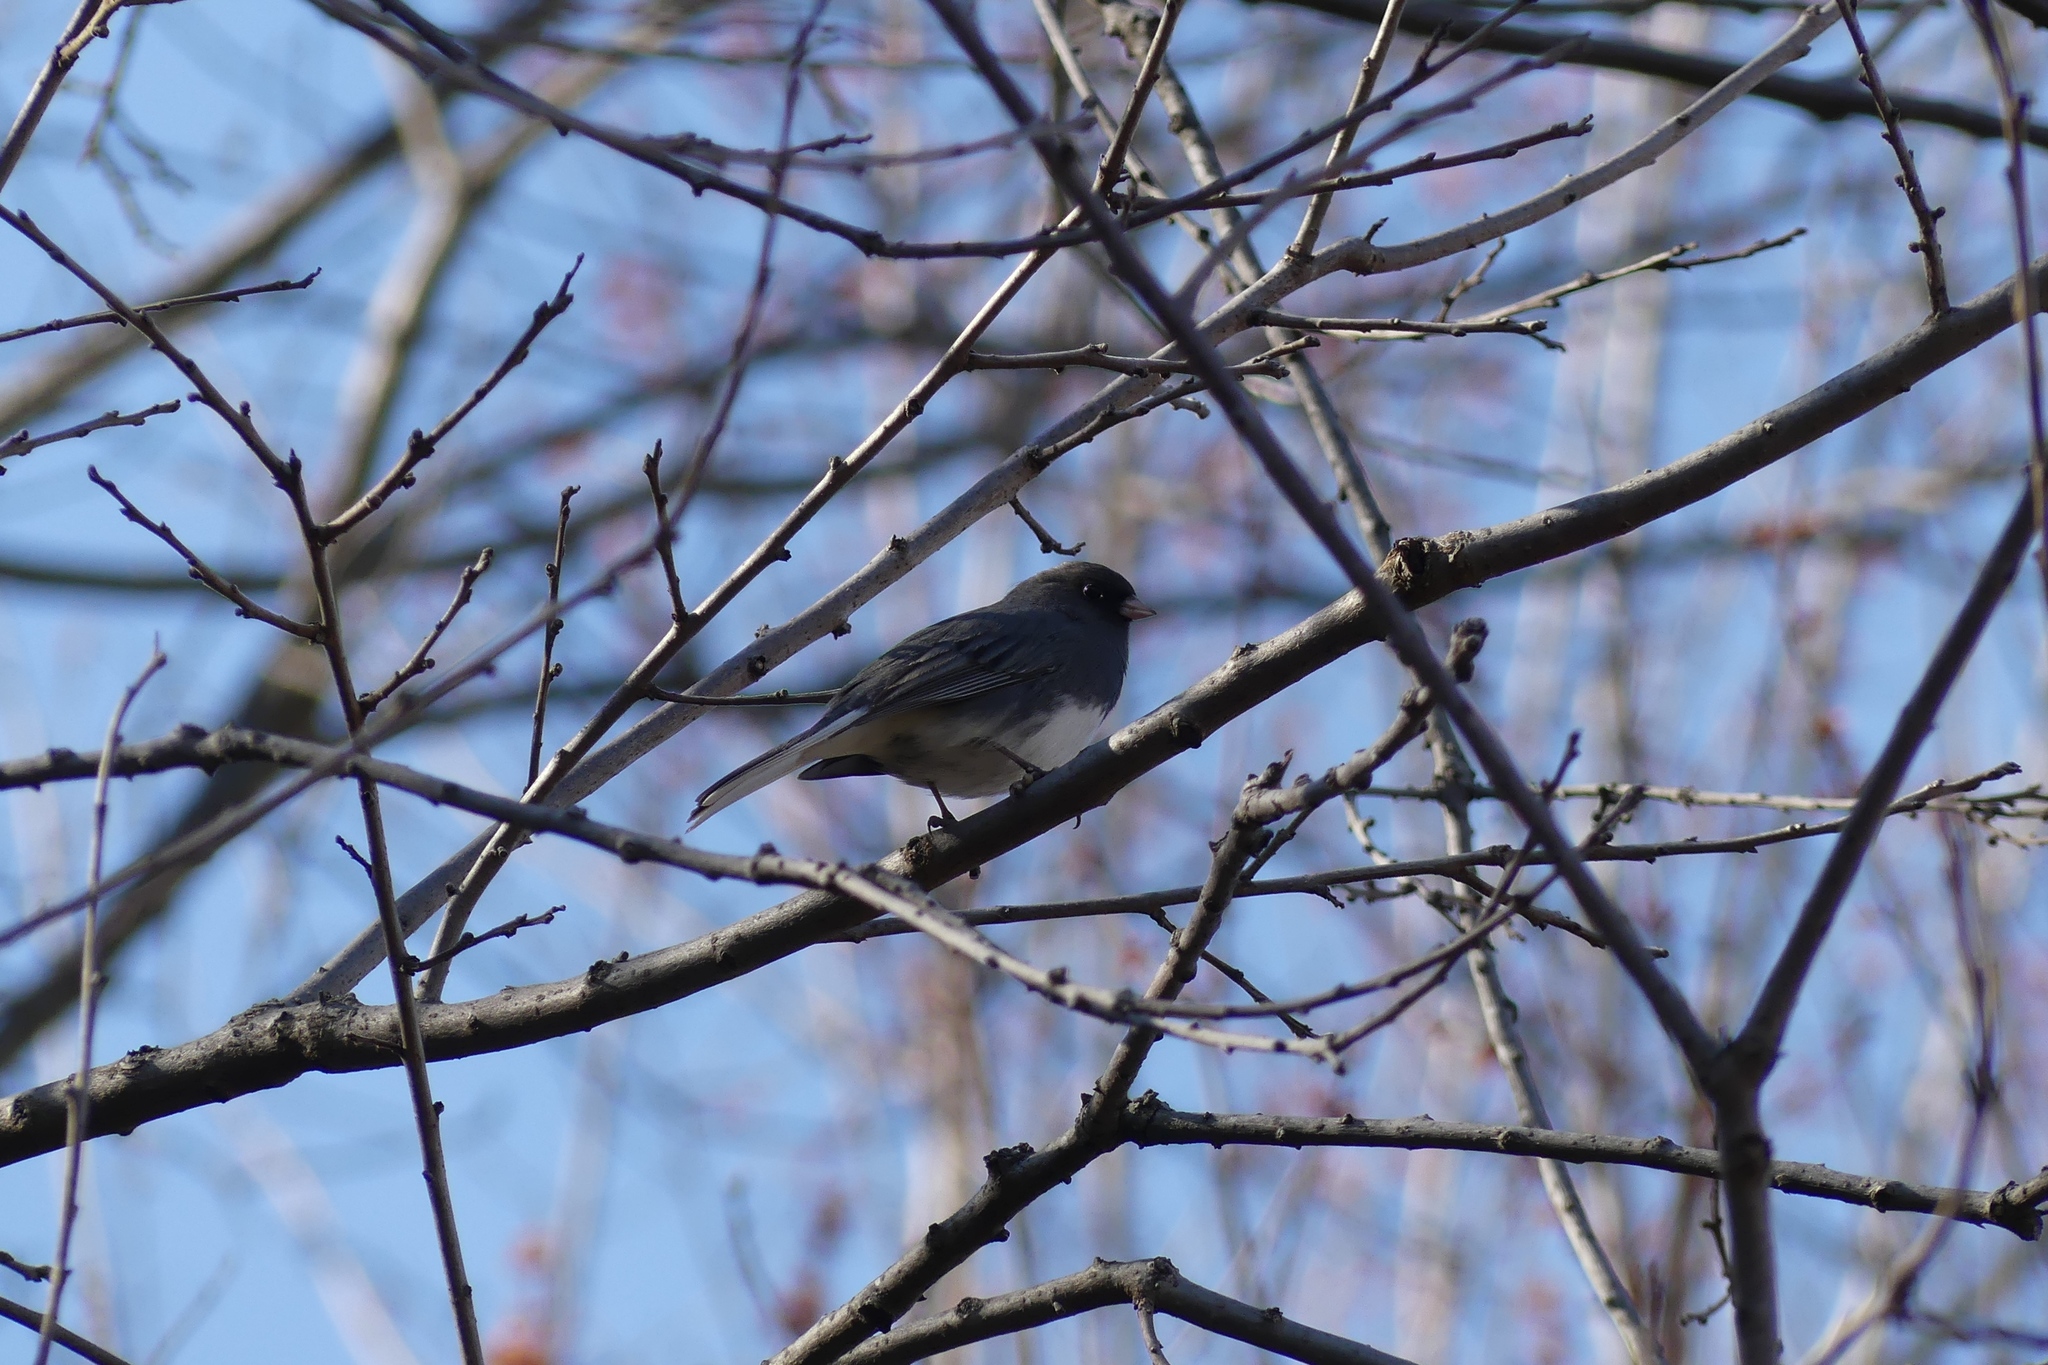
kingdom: Animalia
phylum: Chordata
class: Aves
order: Passeriformes
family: Passerellidae
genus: Junco
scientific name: Junco hyemalis
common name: Dark-eyed junco
